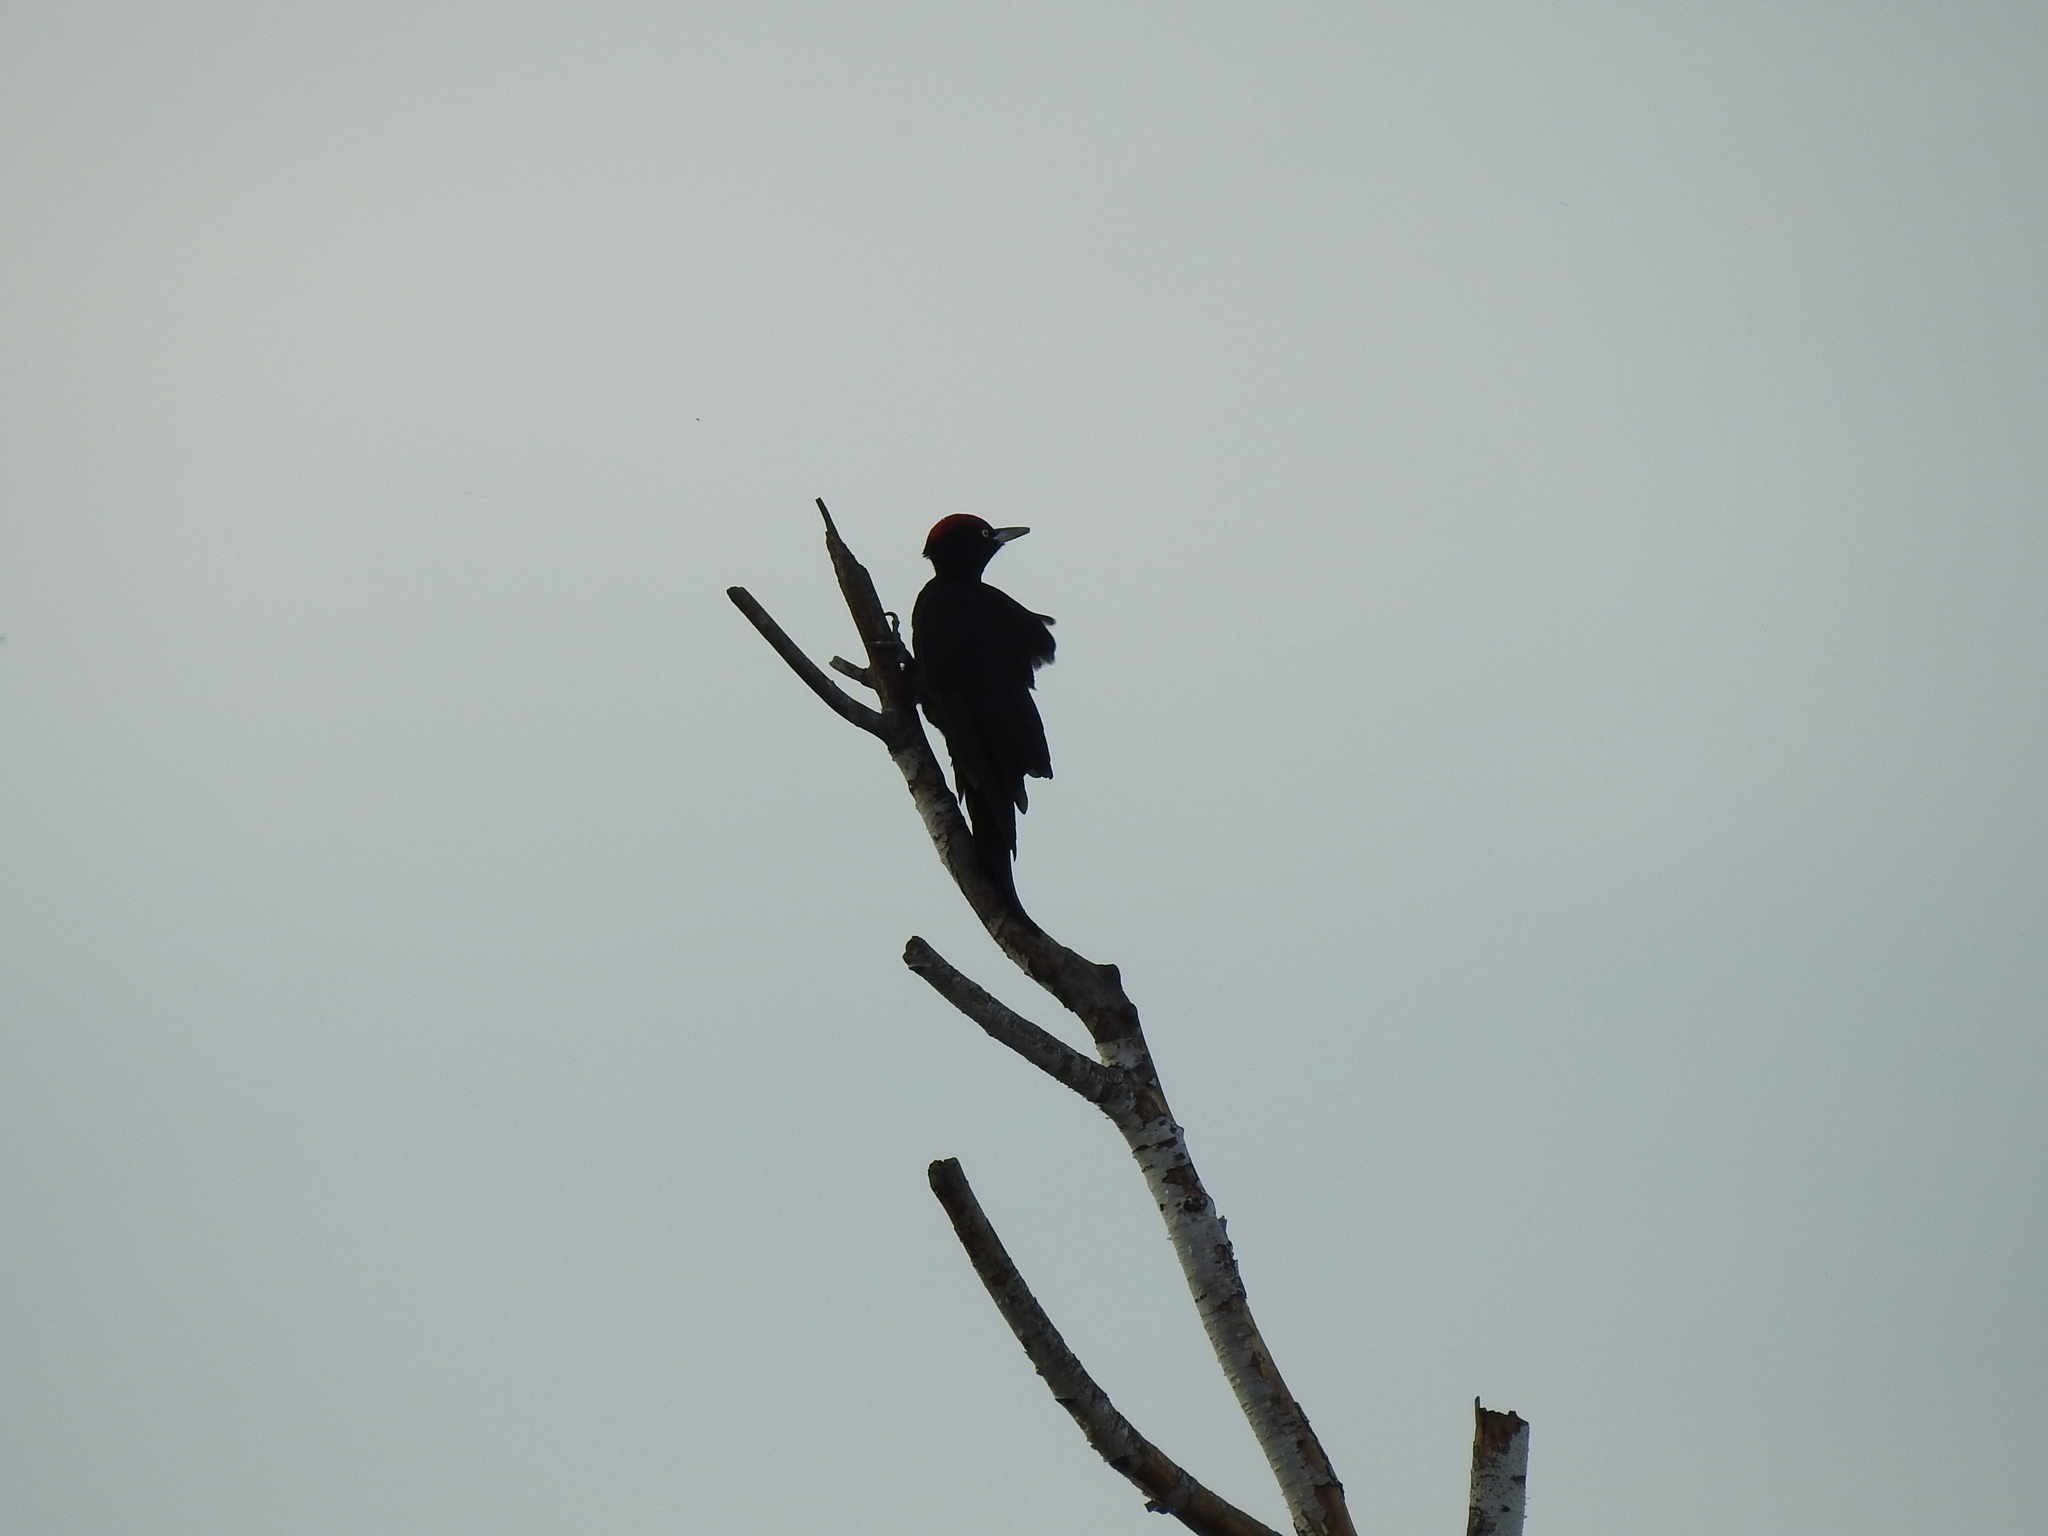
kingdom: Animalia
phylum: Chordata
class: Aves
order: Piciformes
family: Picidae
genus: Dryocopus
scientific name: Dryocopus martius
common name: Black woodpecker
